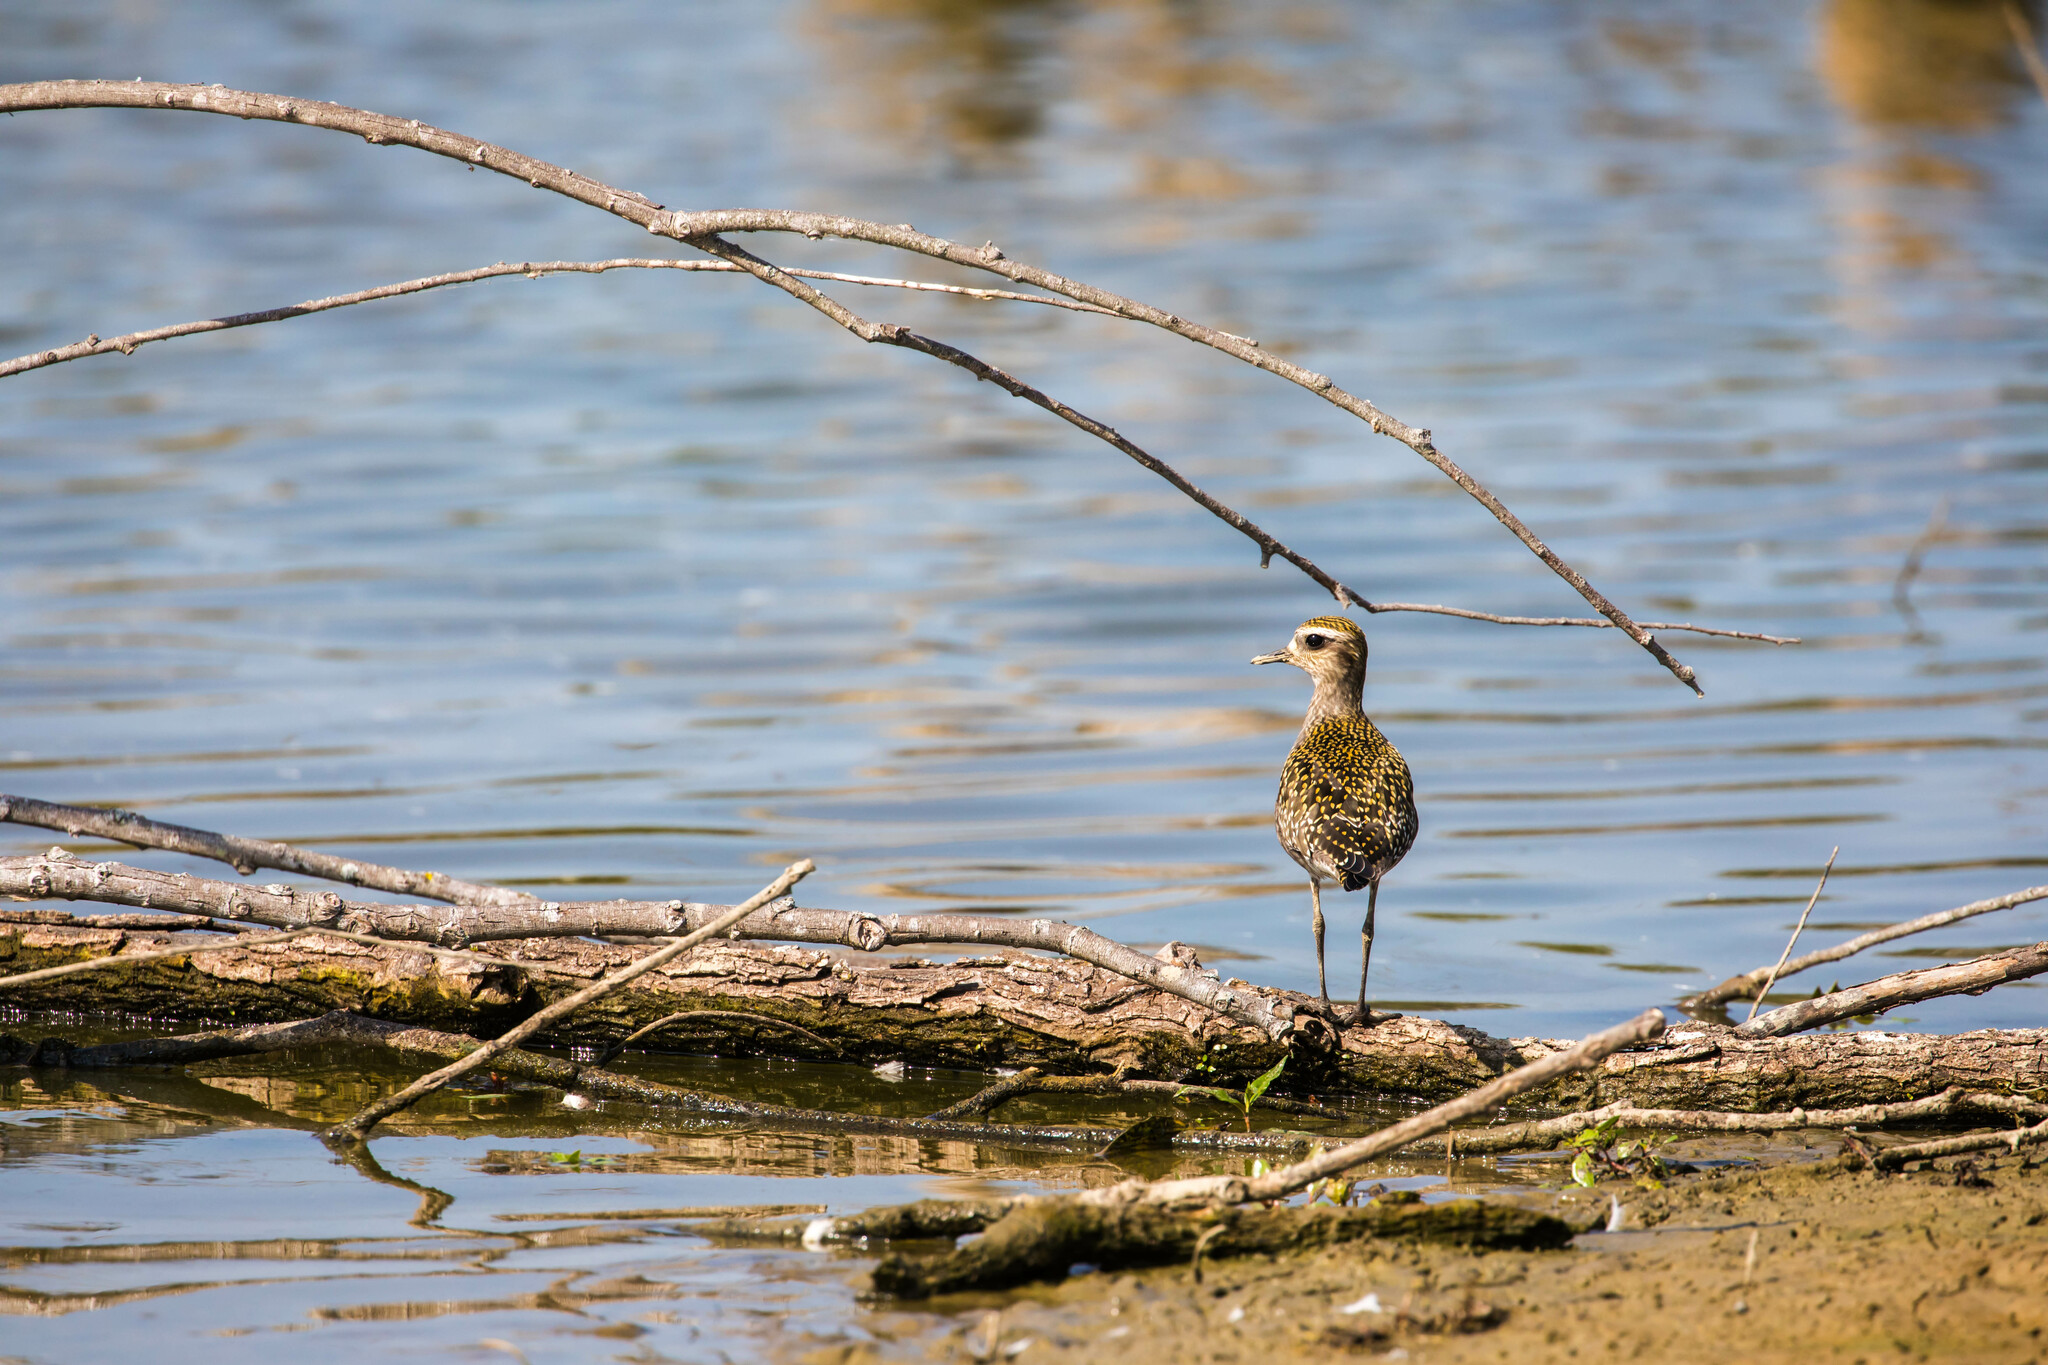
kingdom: Animalia
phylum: Chordata
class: Aves
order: Charadriiformes
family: Charadriidae
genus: Pluvialis
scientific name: Pluvialis dominica
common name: American golden plover
